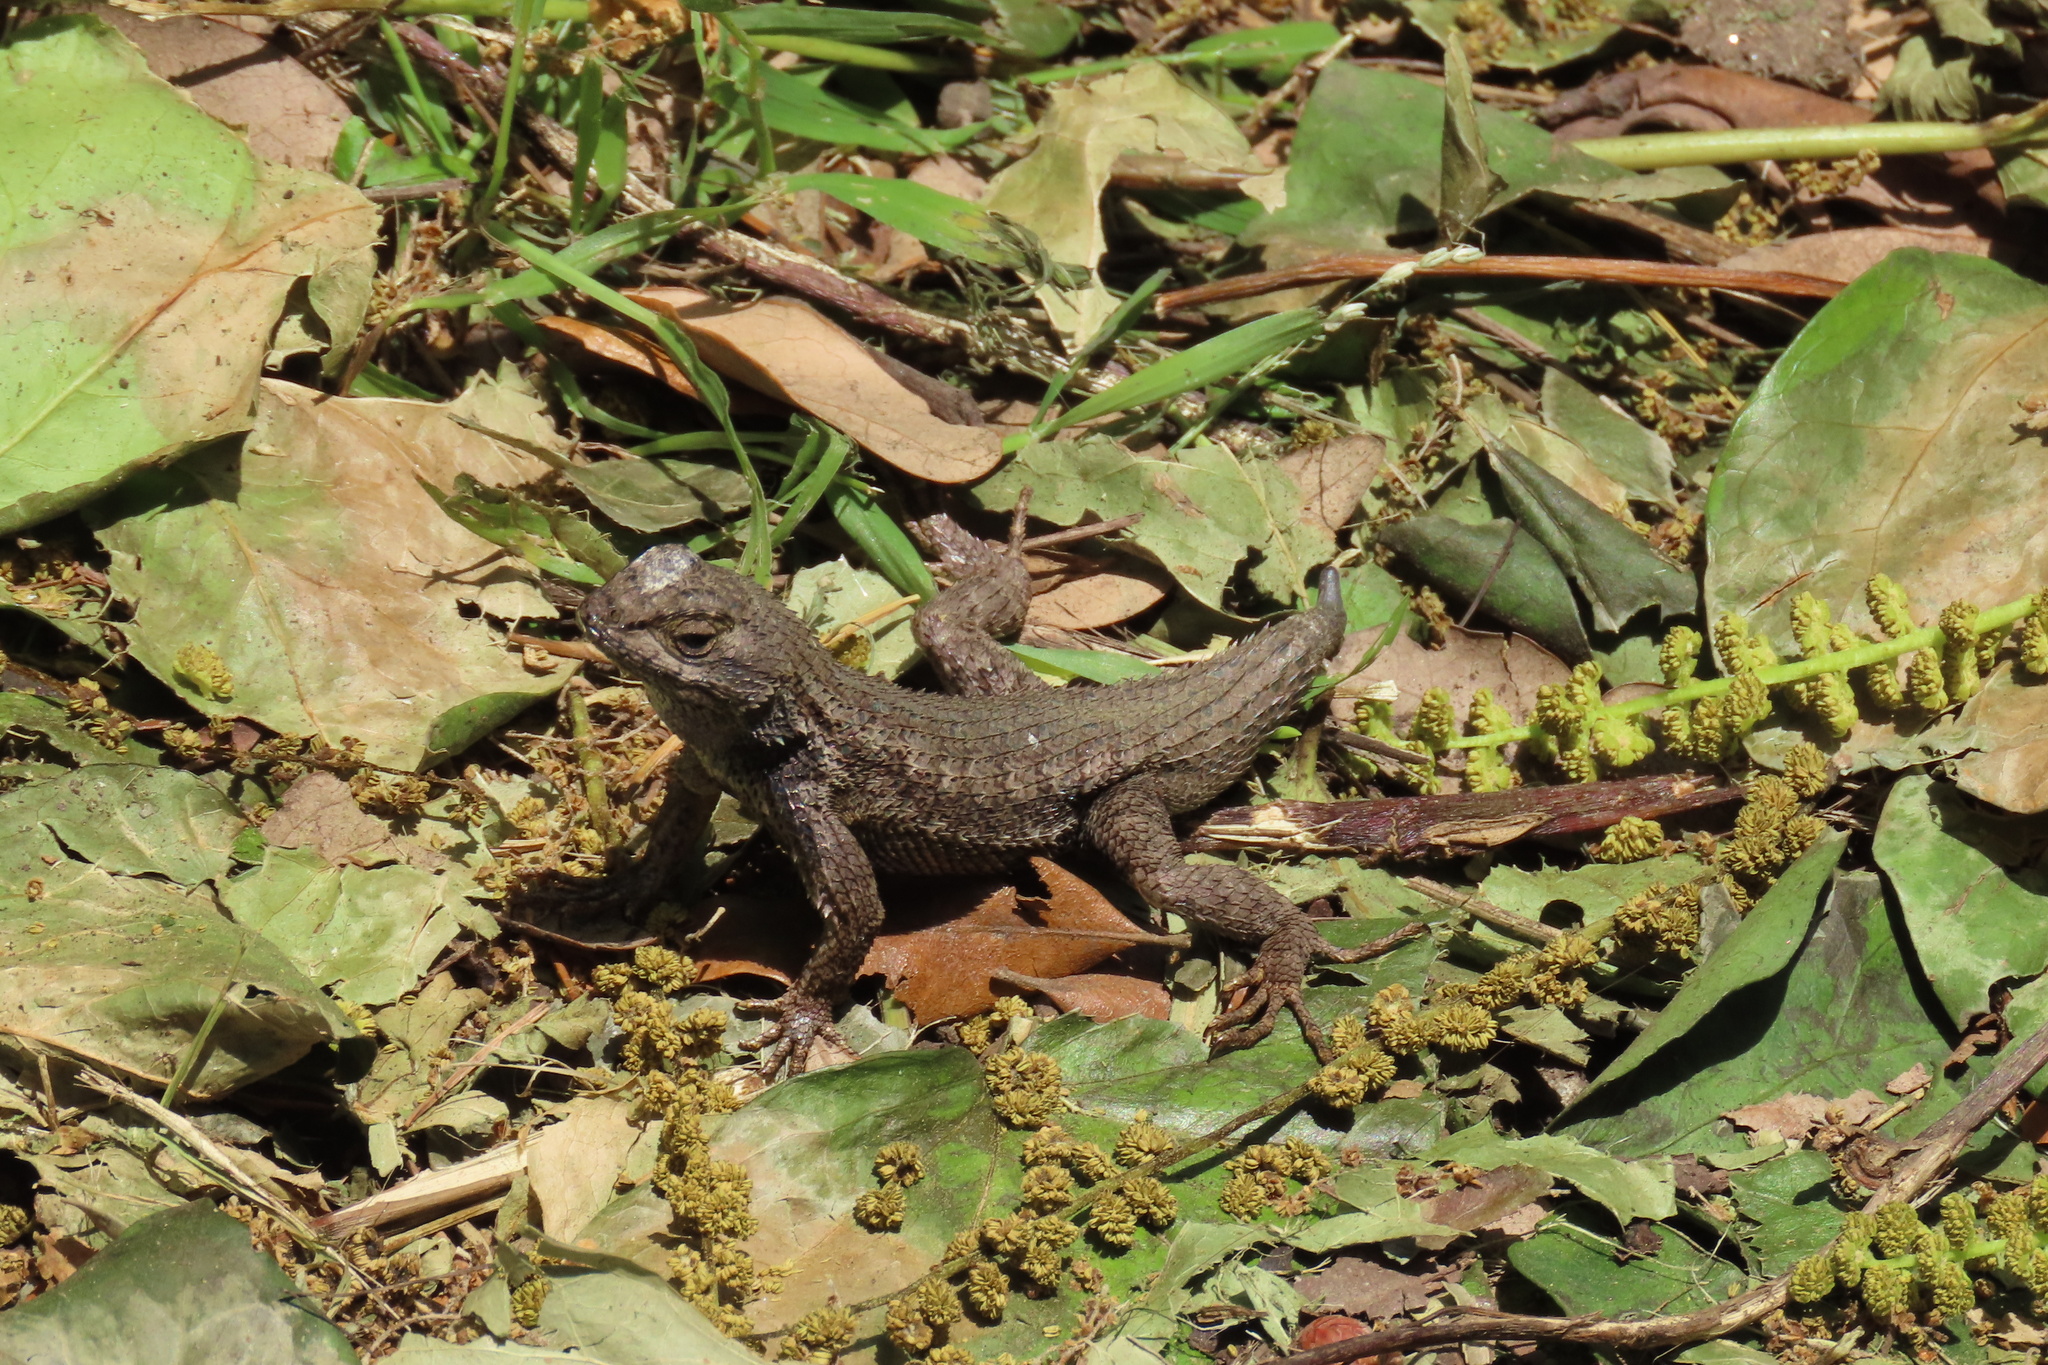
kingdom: Animalia
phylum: Chordata
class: Squamata
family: Phrynosomatidae
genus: Sceloporus
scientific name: Sceloporus occidentalis
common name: Western fence lizard
